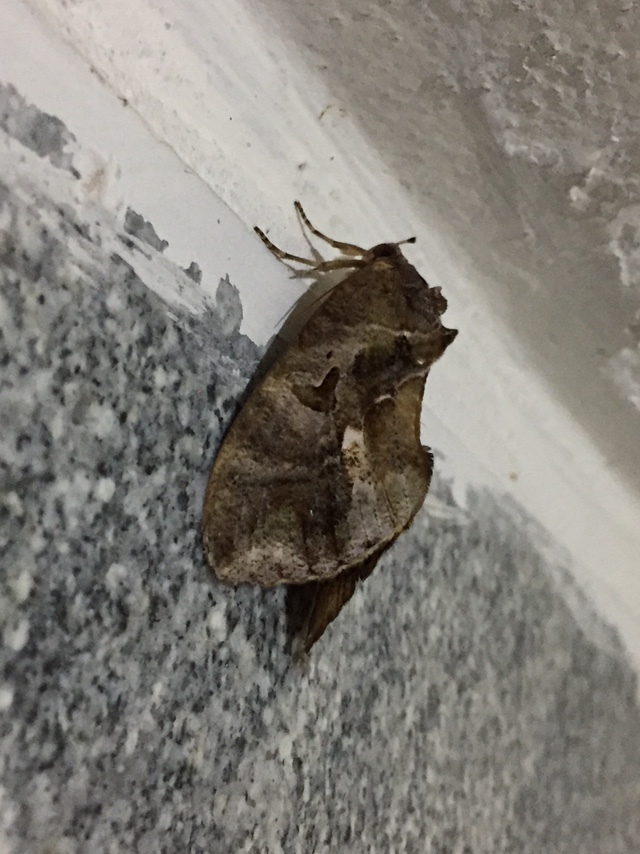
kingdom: Animalia
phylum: Arthropoda
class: Insecta
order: Lepidoptera
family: Erebidae
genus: Eudocima
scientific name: Eudocima phalonia
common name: Wasp
